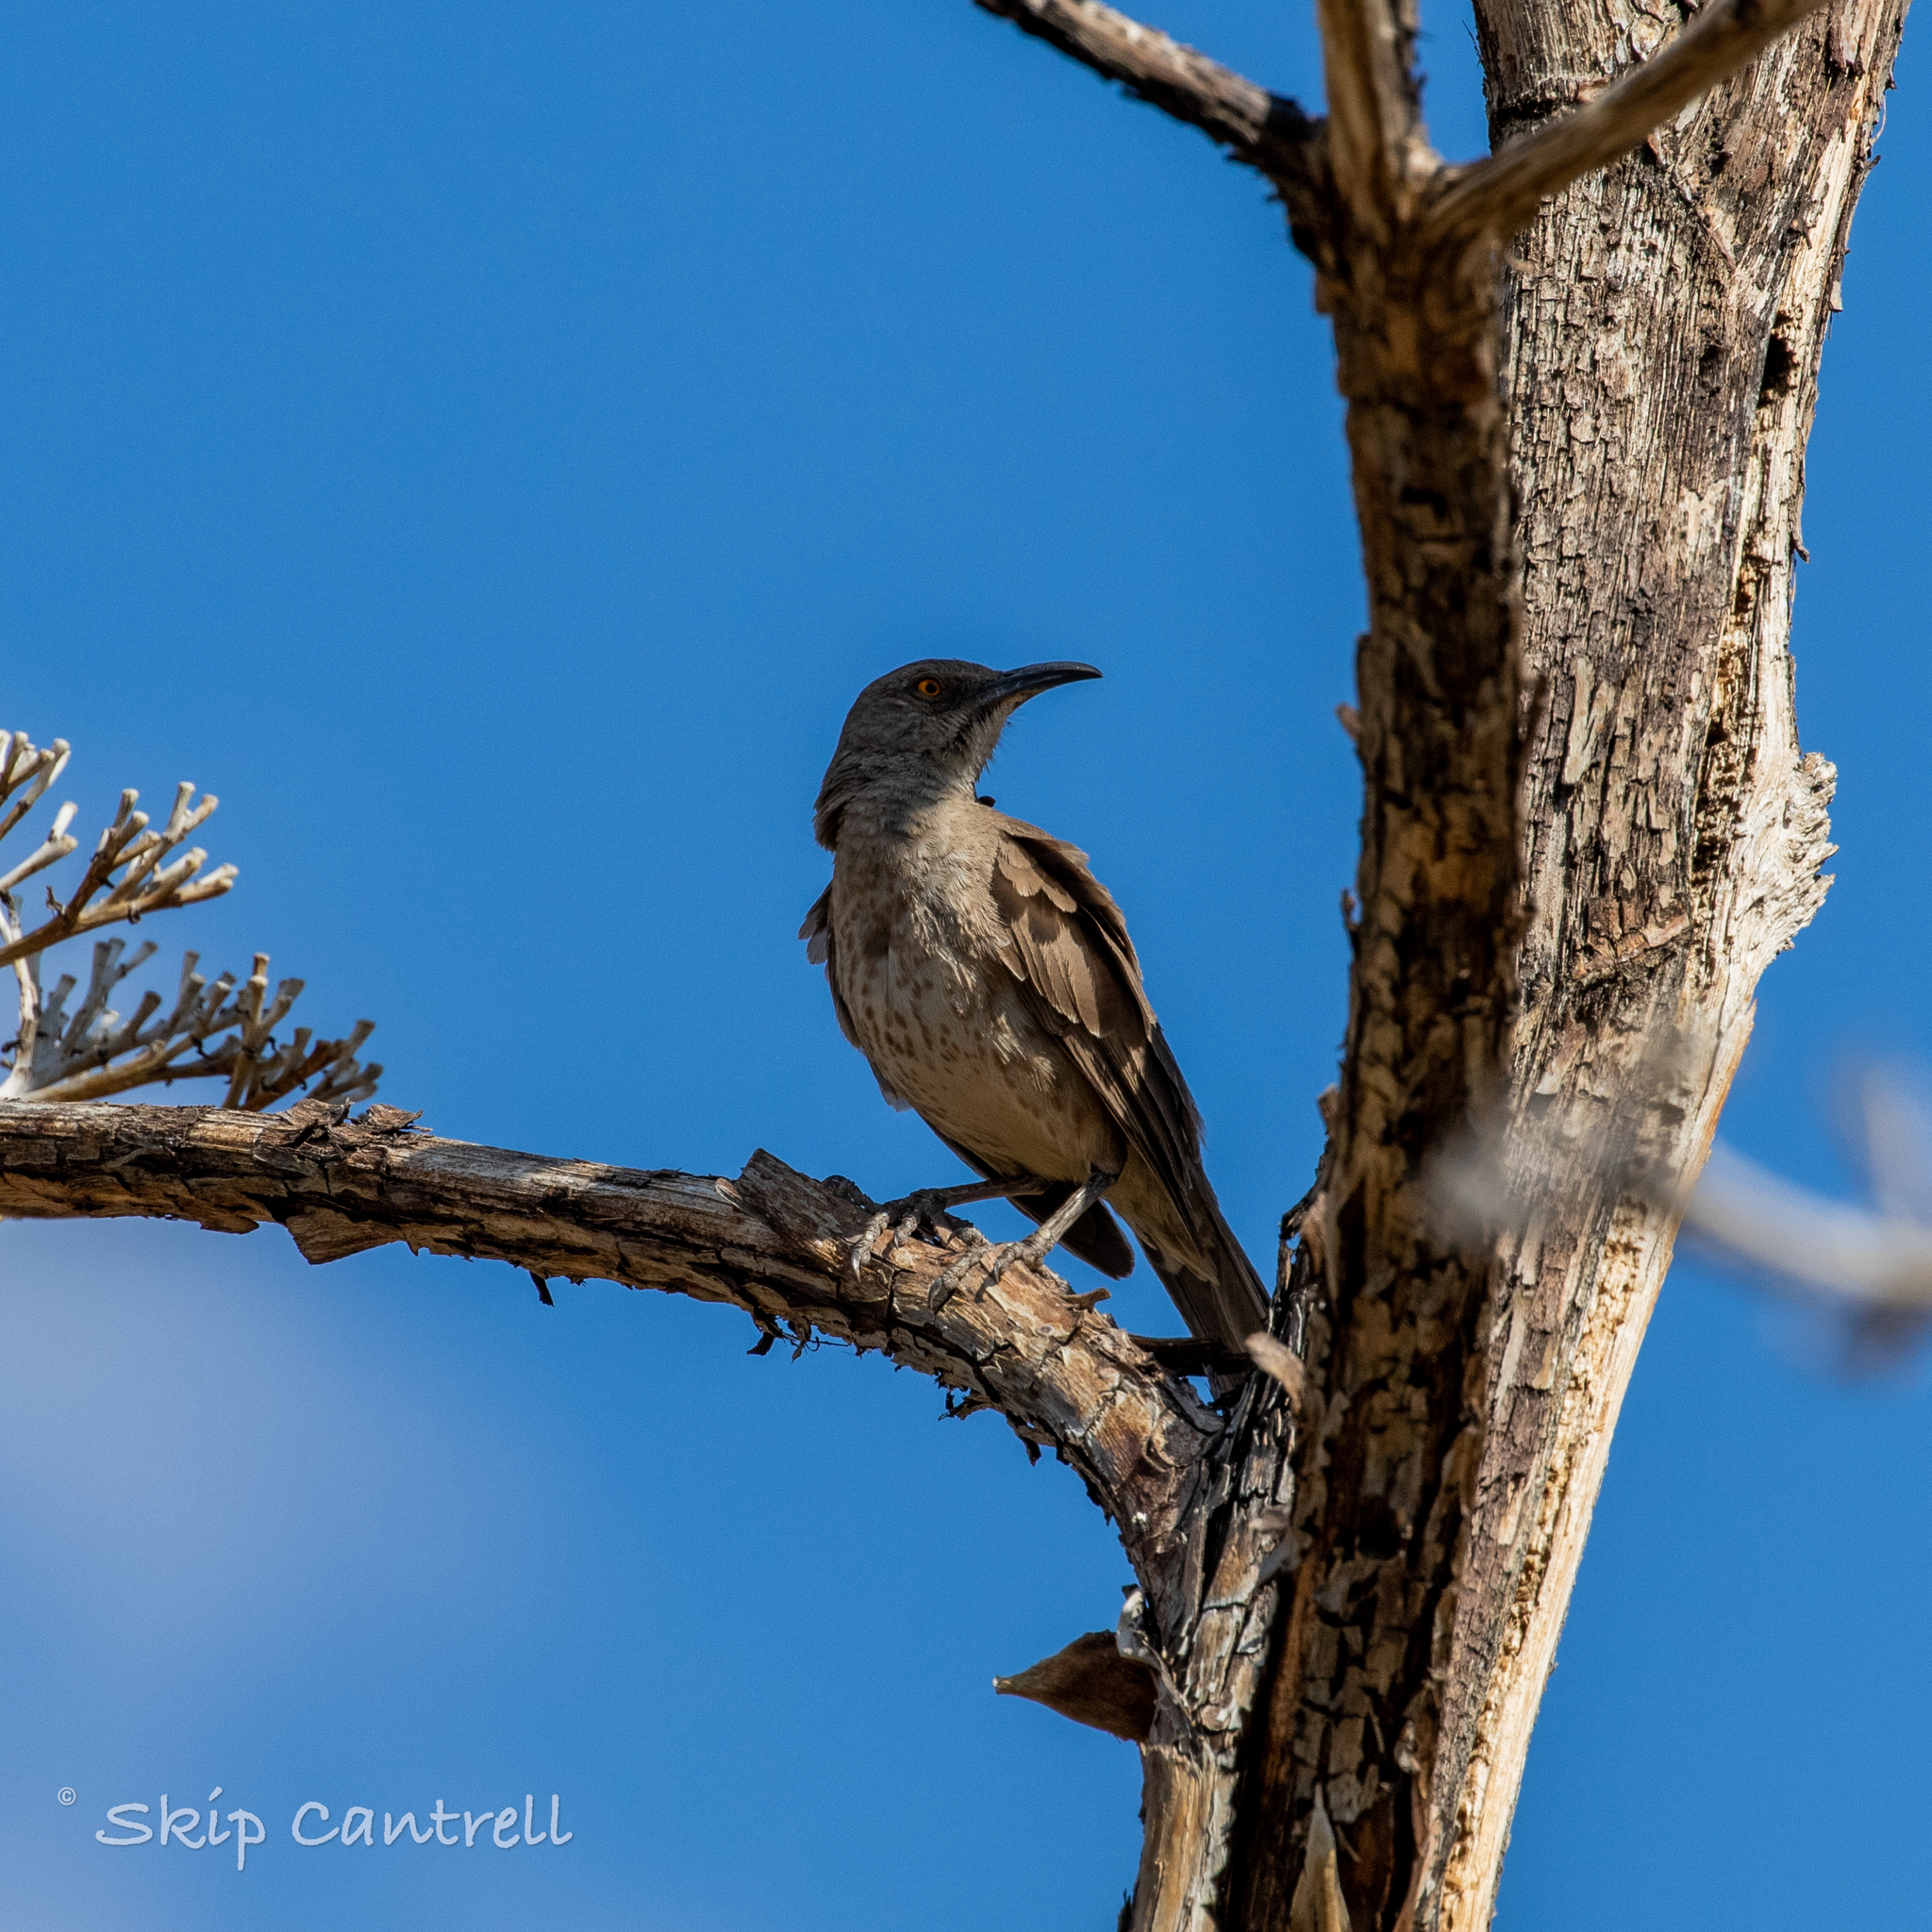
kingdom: Animalia
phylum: Chordata
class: Aves
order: Passeriformes
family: Mimidae
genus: Toxostoma
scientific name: Toxostoma curvirostre
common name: Curve-billed thrasher
